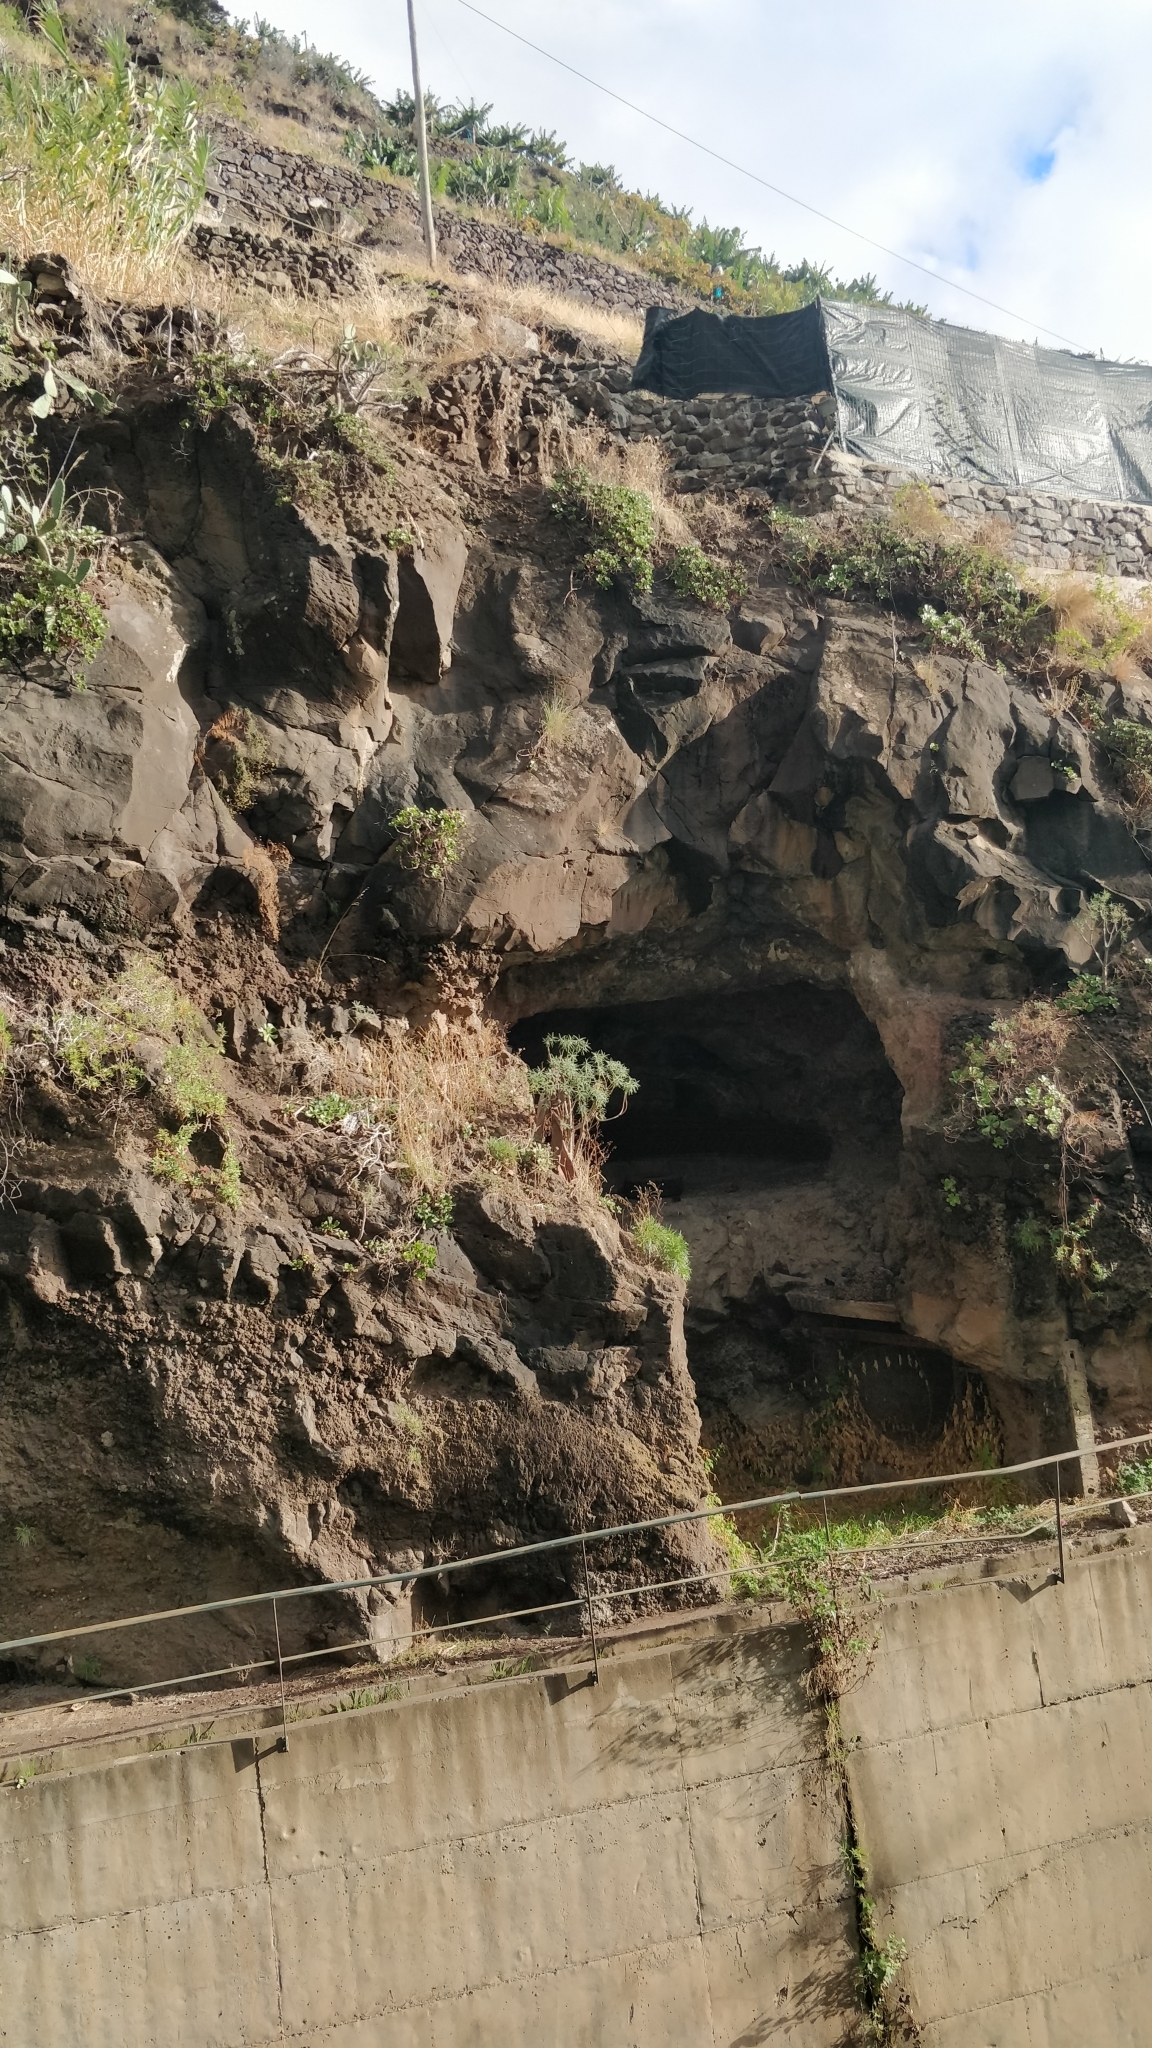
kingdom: Plantae
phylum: Tracheophyta
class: Magnoliopsida
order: Malpighiales
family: Euphorbiaceae
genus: Euphorbia
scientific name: Euphorbia piscatoria
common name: Fish-stunning spurge
